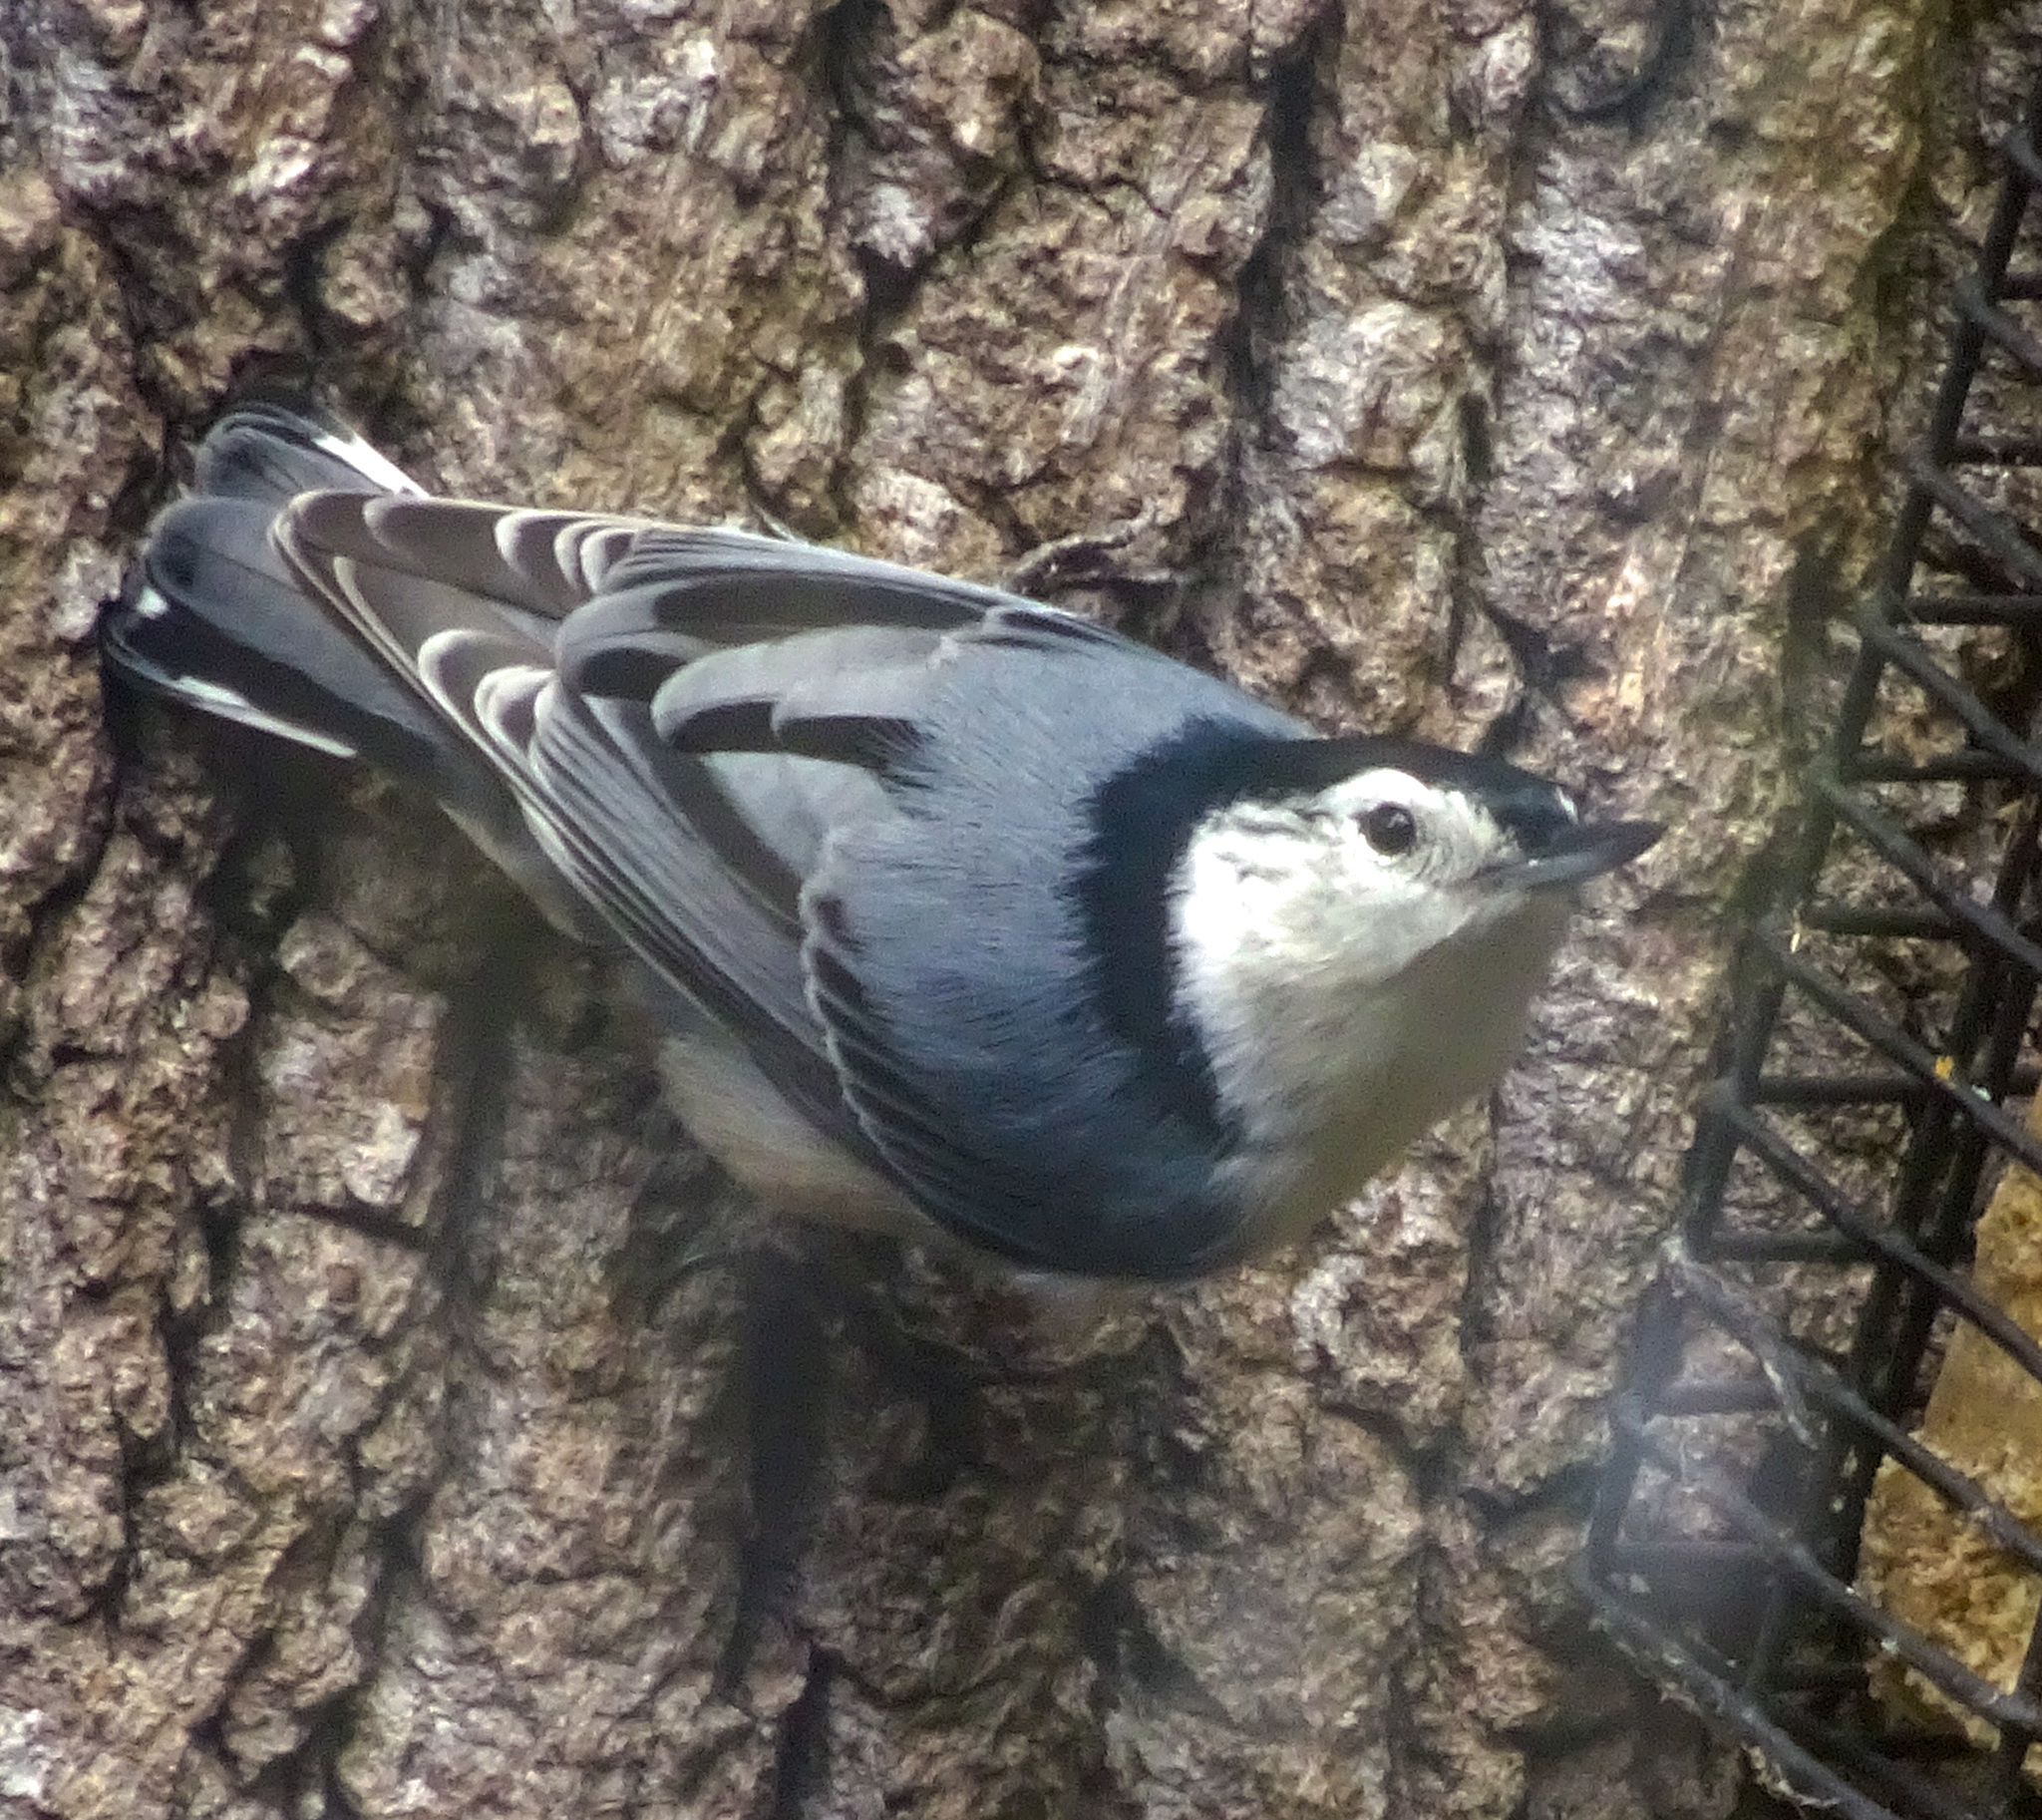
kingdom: Animalia
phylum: Chordata
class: Aves
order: Passeriformes
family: Sittidae
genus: Sitta
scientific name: Sitta carolinensis
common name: White-breasted nuthatch
